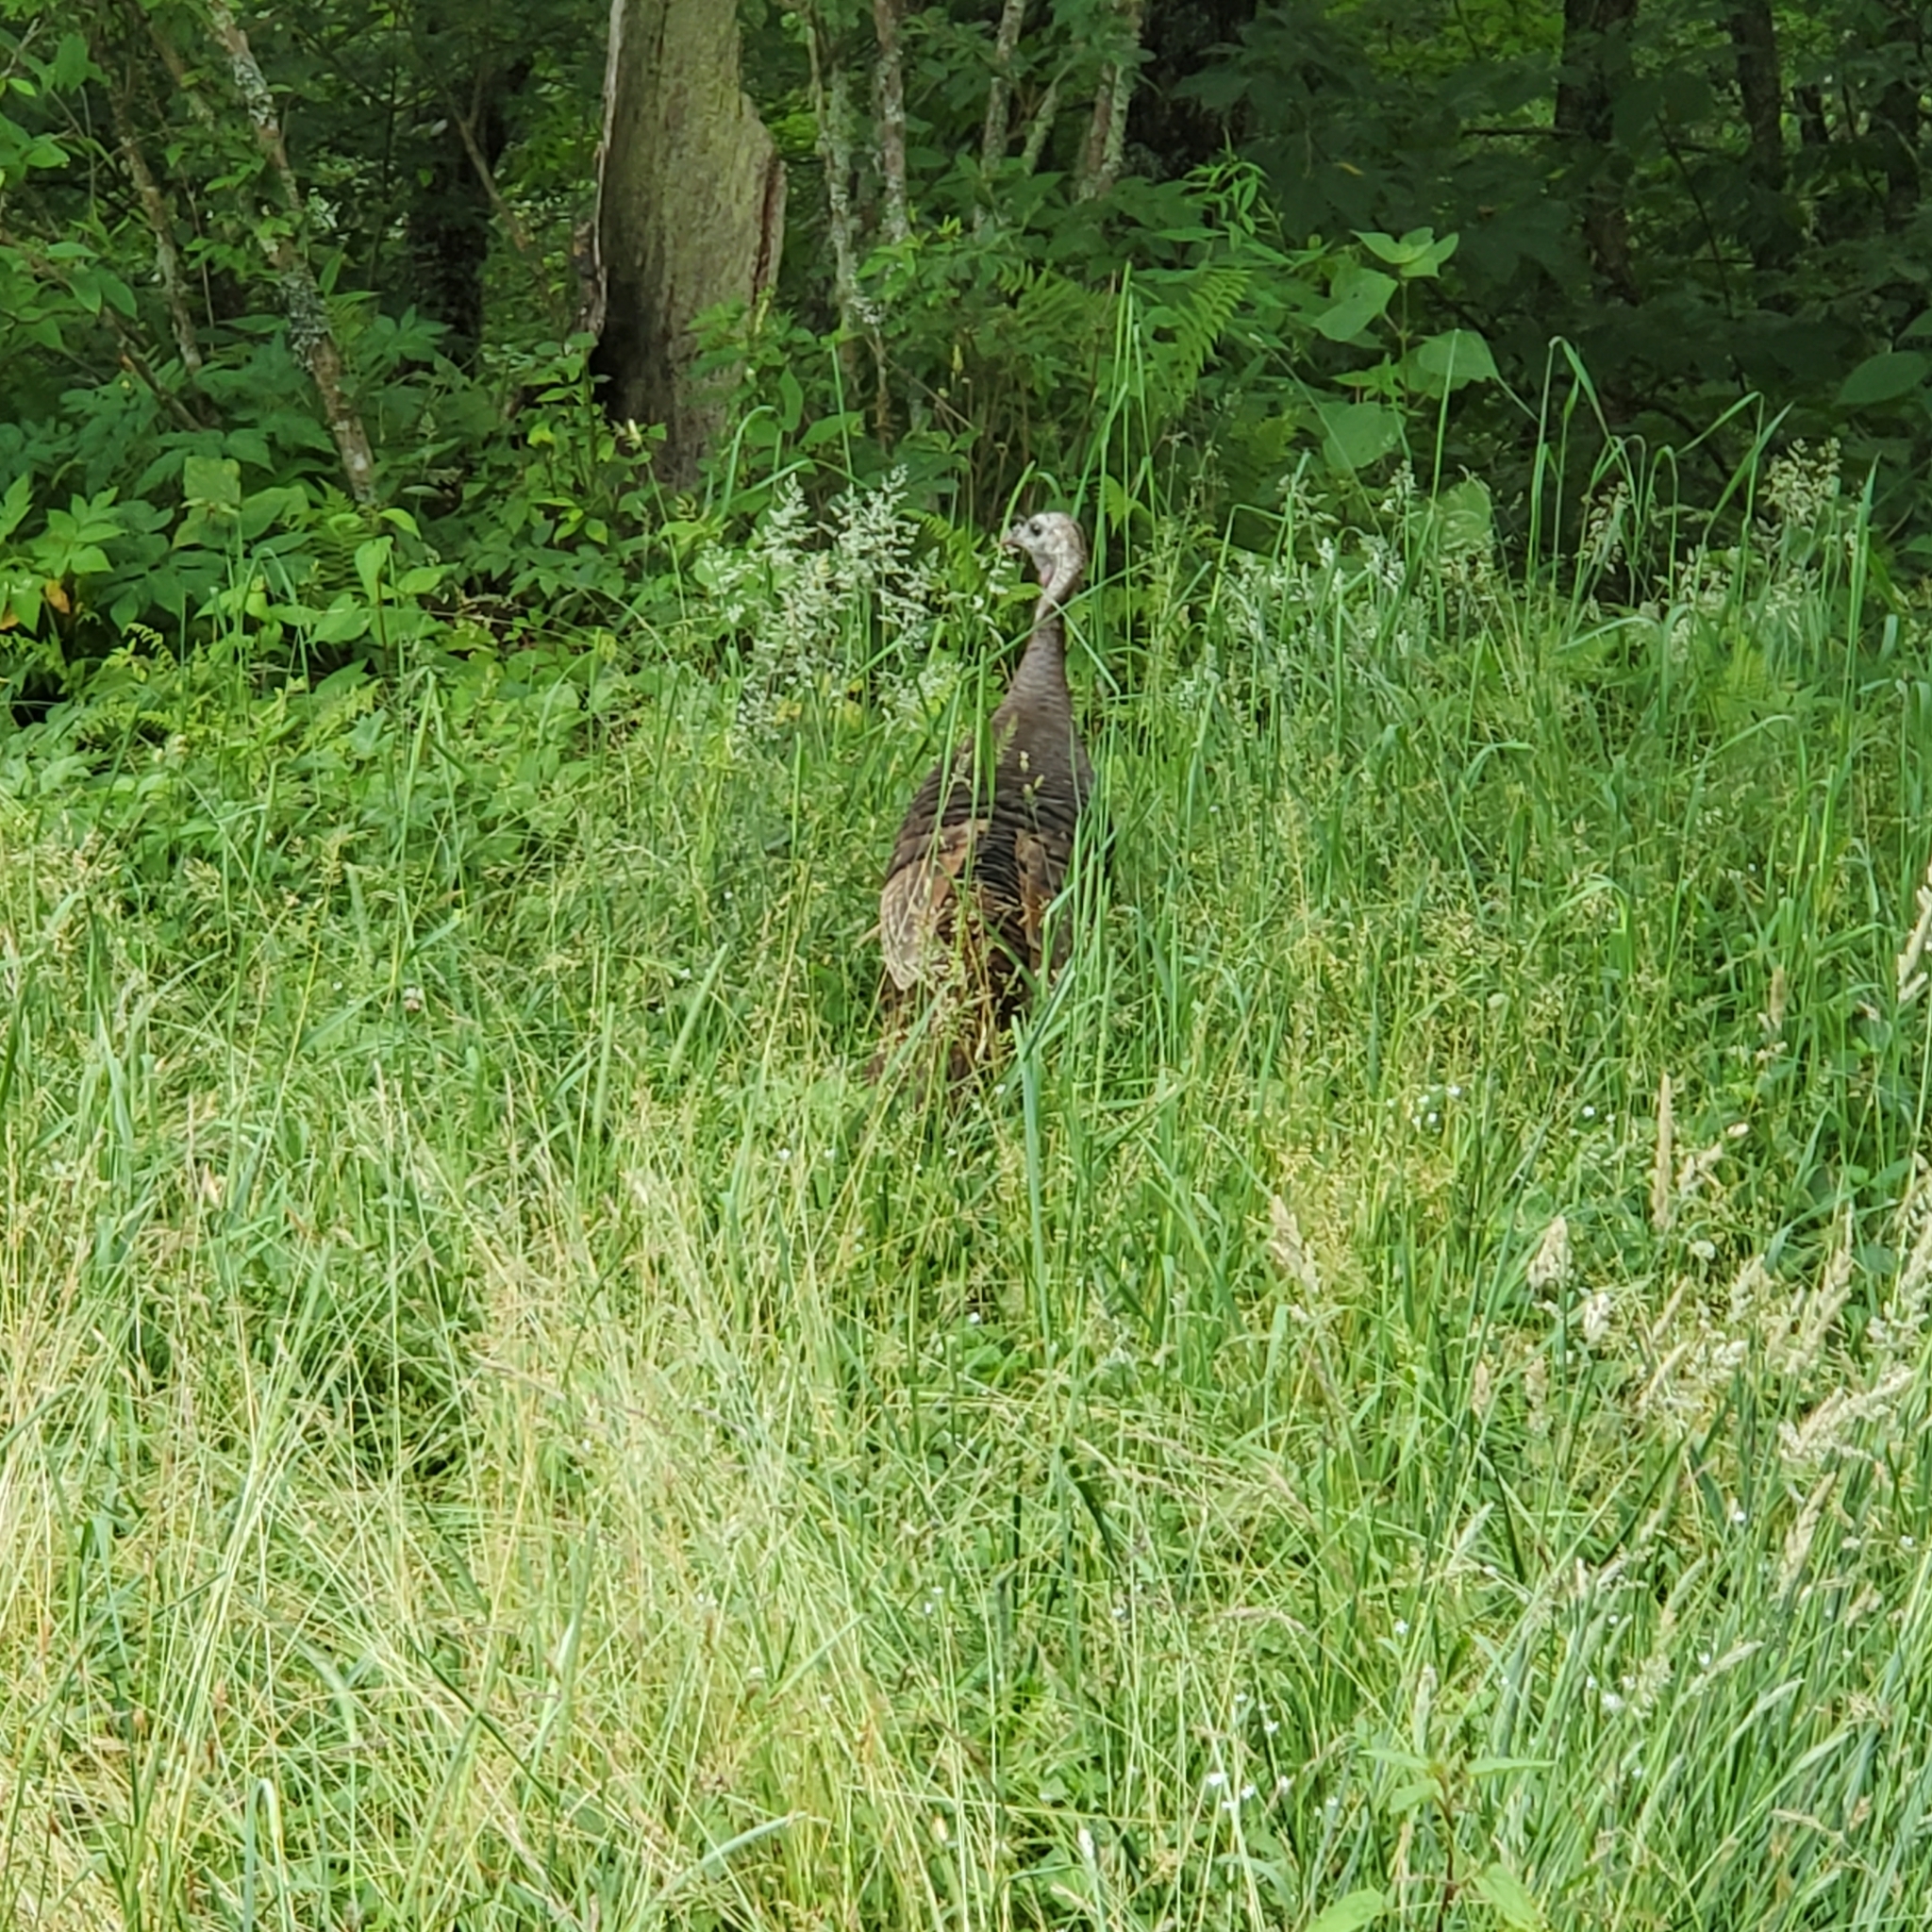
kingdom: Animalia
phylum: Chordata
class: Aves
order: Galliformes
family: Phasianidae
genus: Meleagris
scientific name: Meleagris gallopavo
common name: Wild turkey
